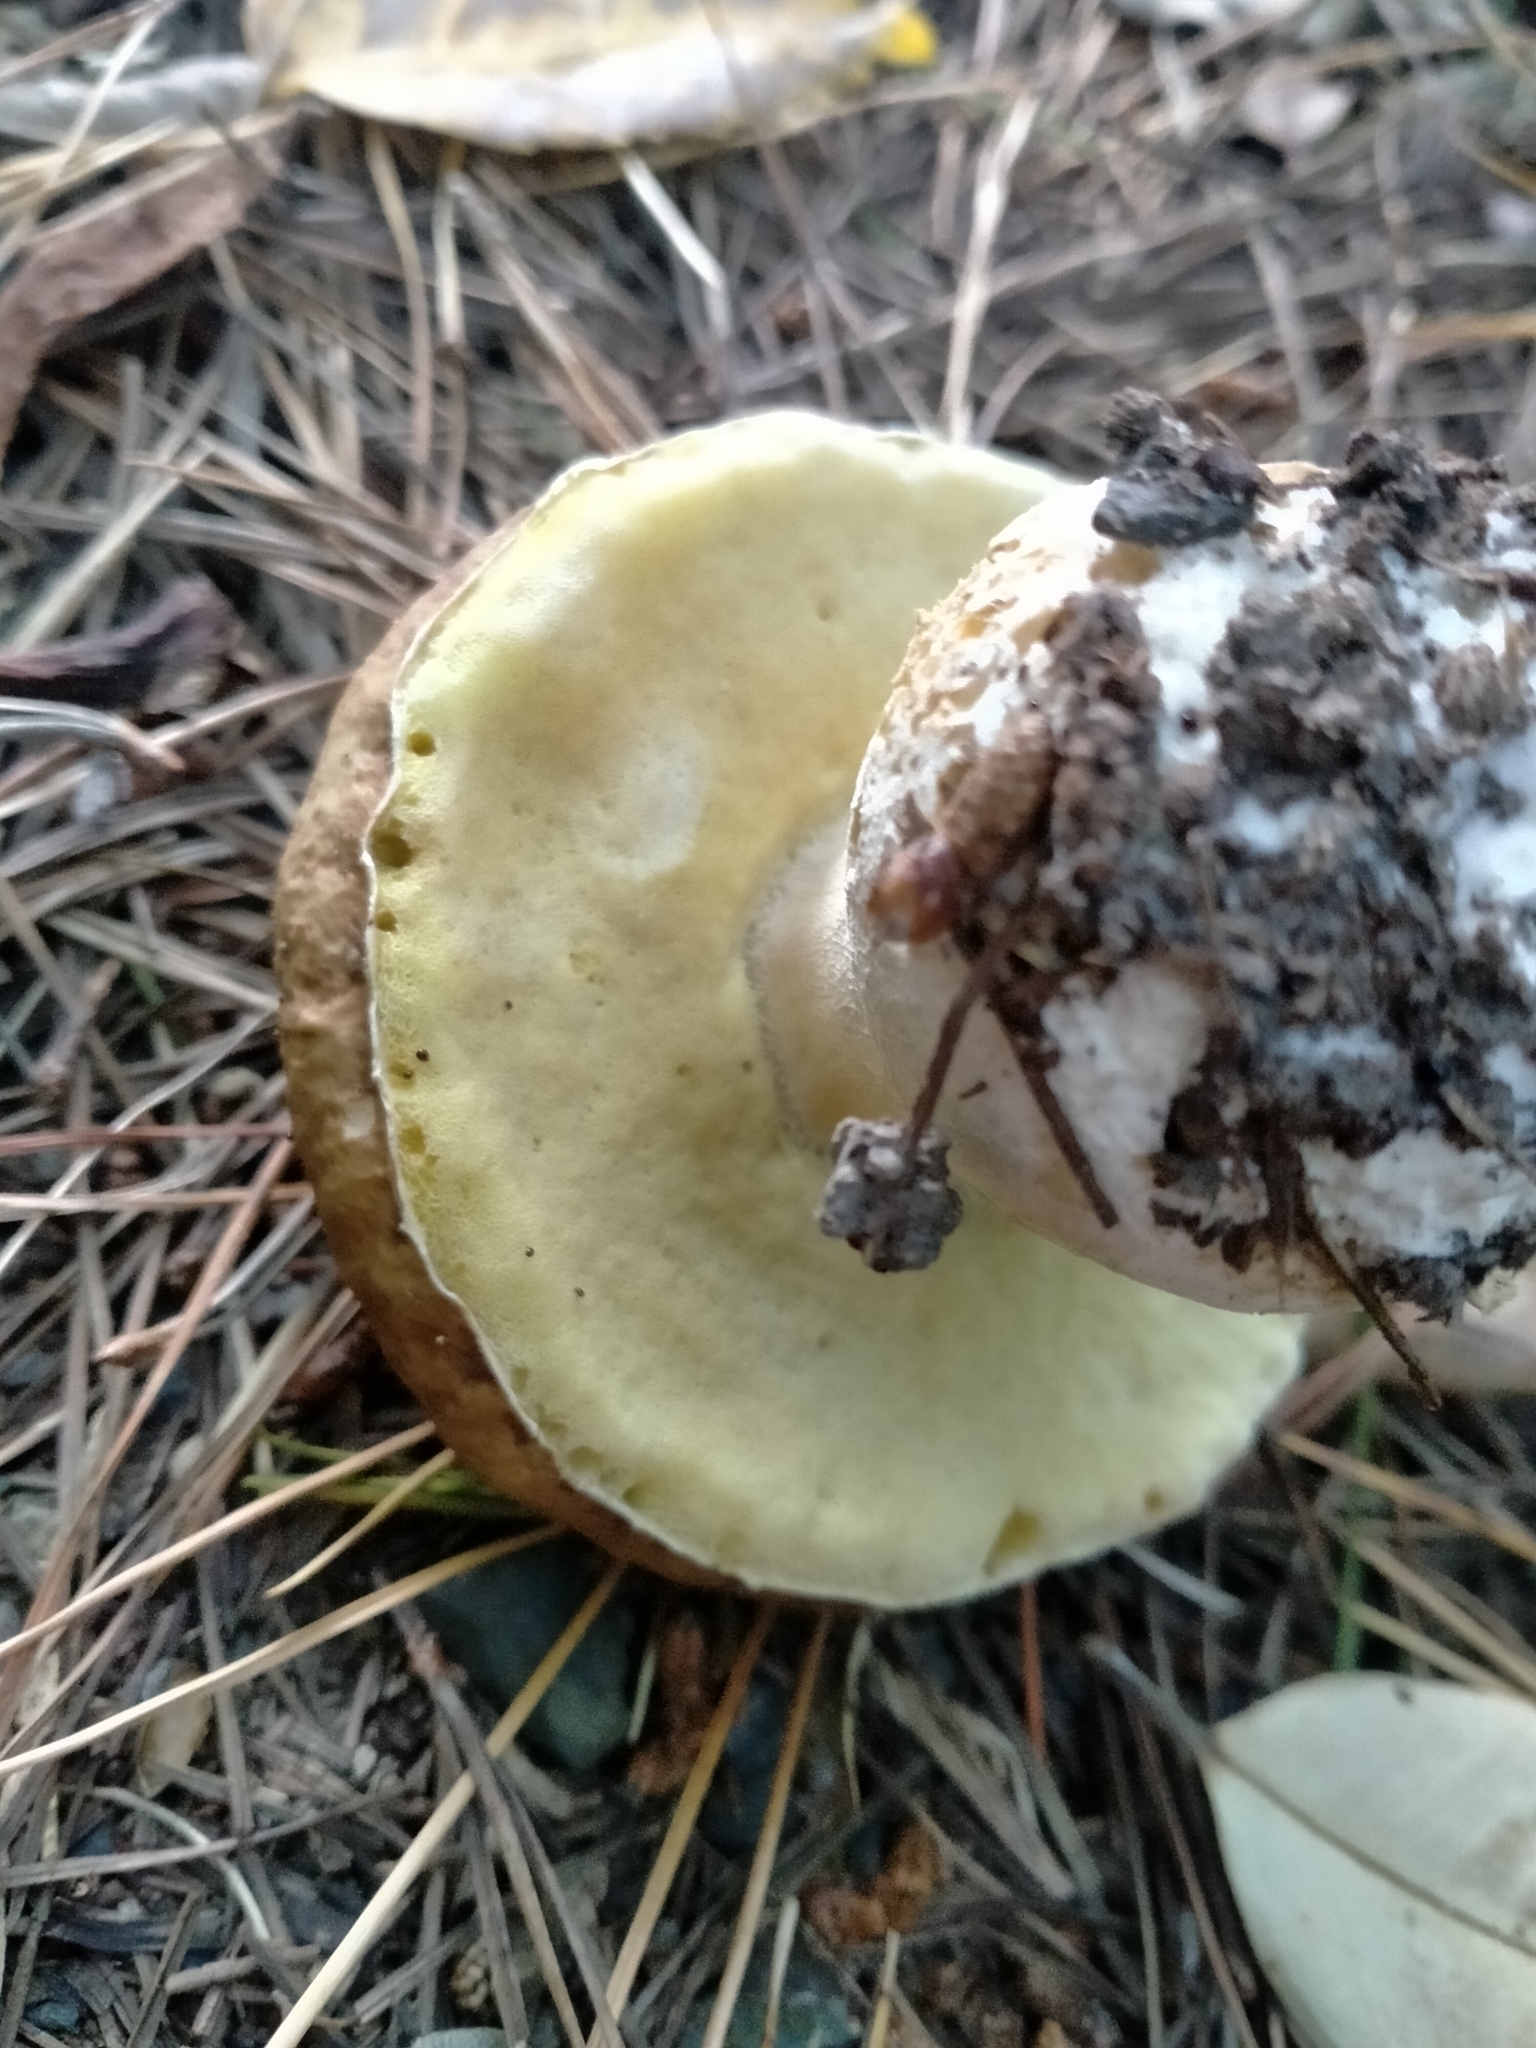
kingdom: Fungi
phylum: Basidiomycota
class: Agaricomycetes
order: Boletales
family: Boletaceae
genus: Boletus
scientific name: Boletus edulis
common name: Cep
